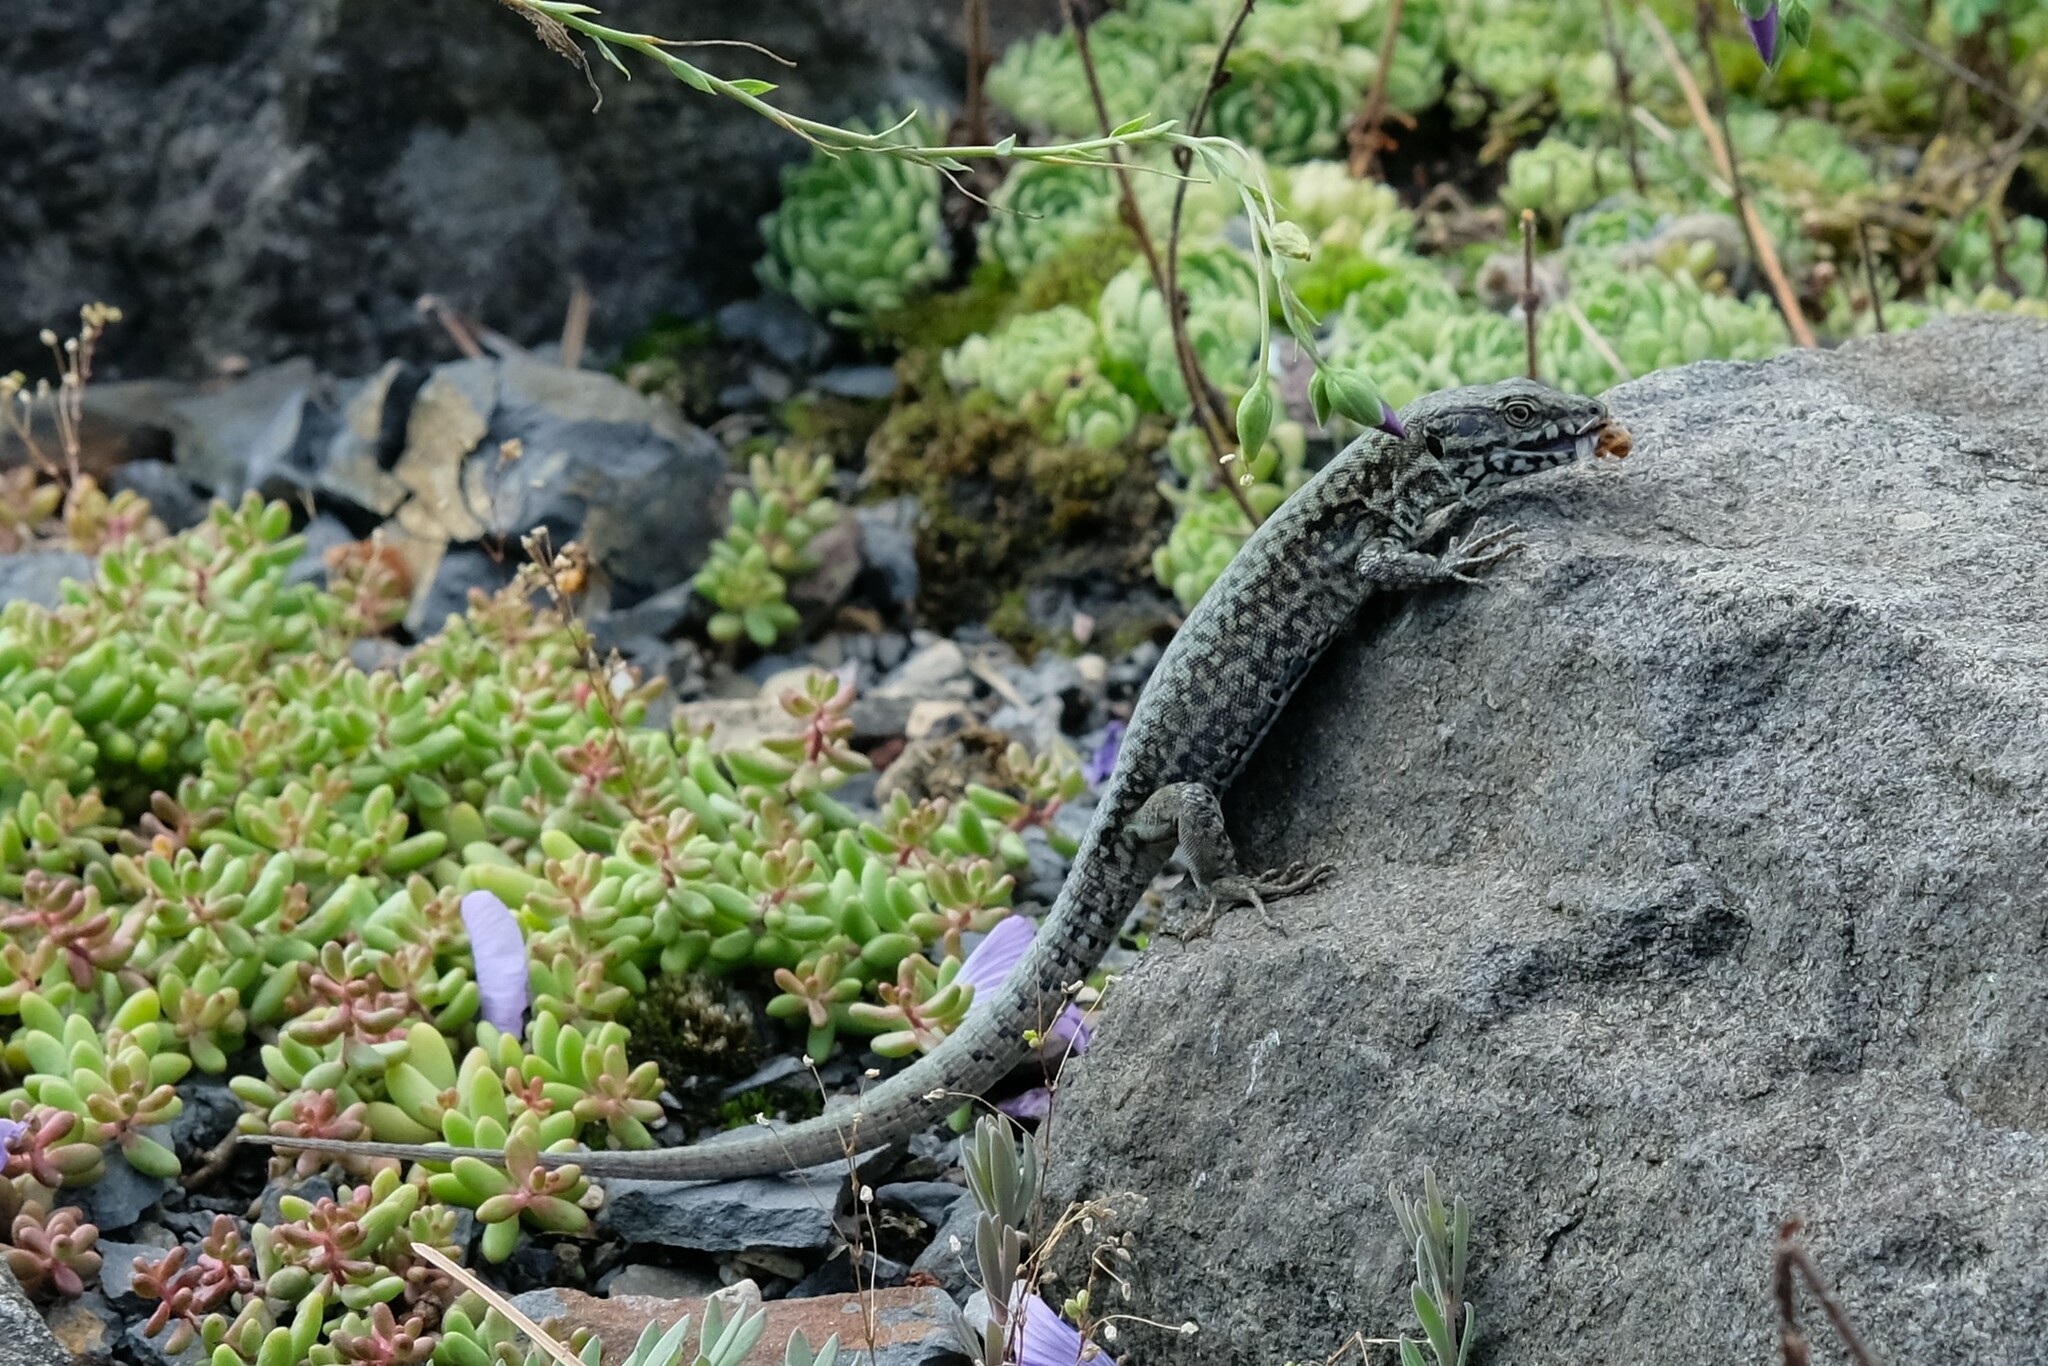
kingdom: Animalia
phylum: Chordata
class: Squamata
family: Lacertidae
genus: Podarcis
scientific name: Podarcis muralis
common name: Common wall lizard
